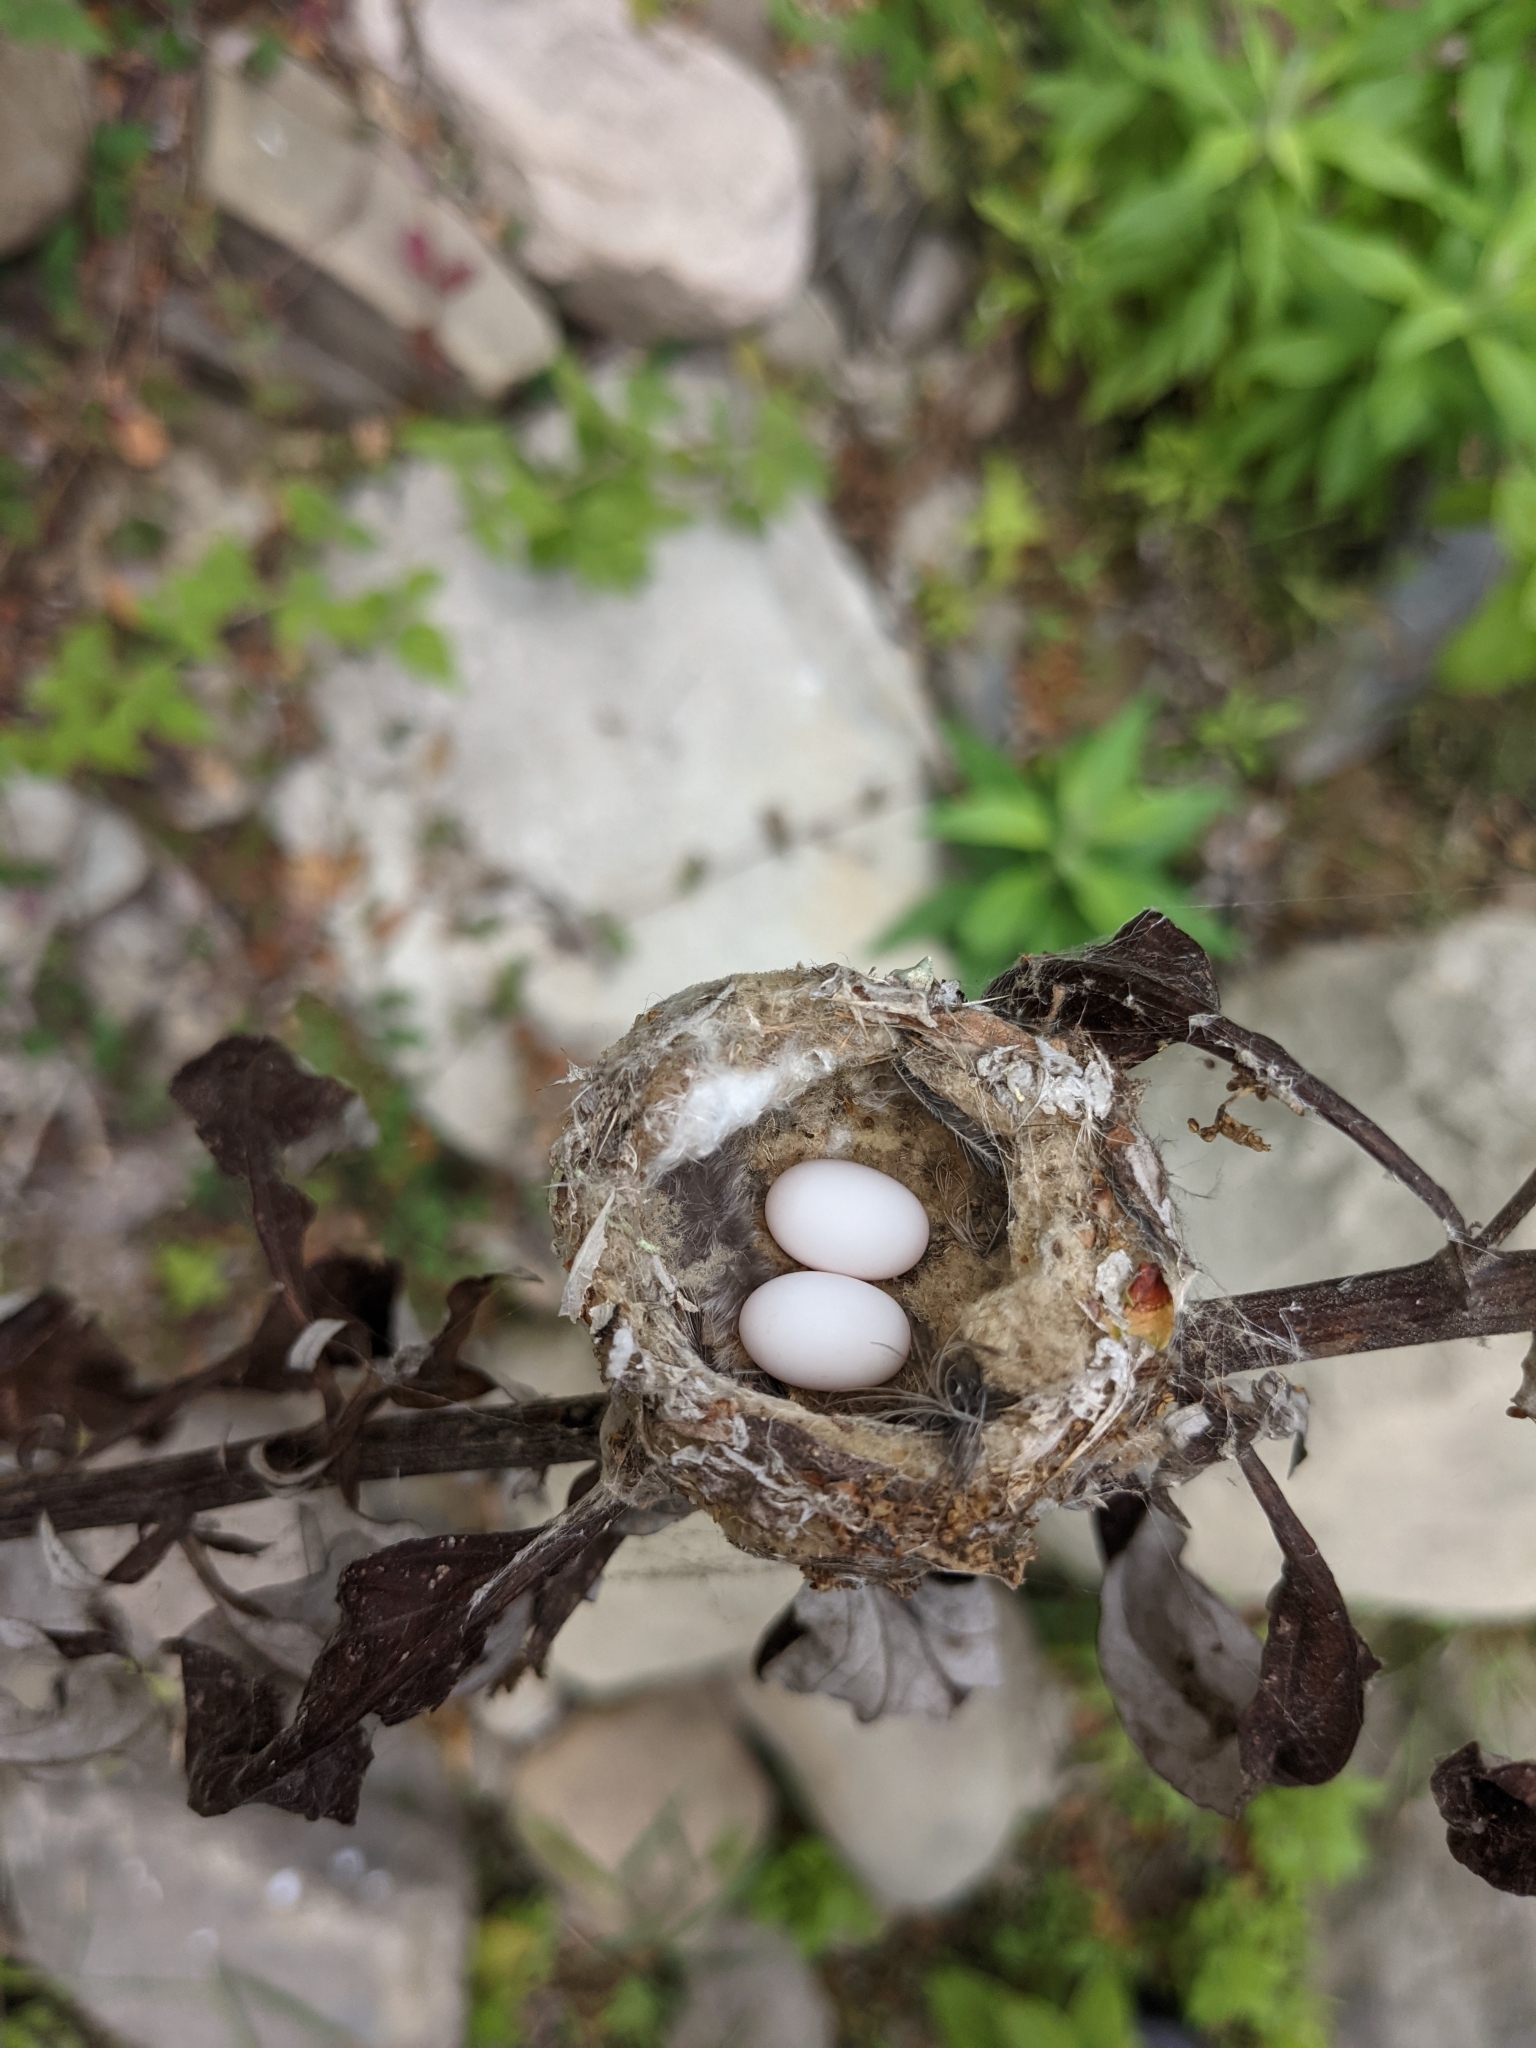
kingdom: Animalia
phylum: Chordata
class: Aves
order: Apodiformes
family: Trochilidae
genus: Calypte
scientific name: Calypte costae
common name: Costa's hummingbird
